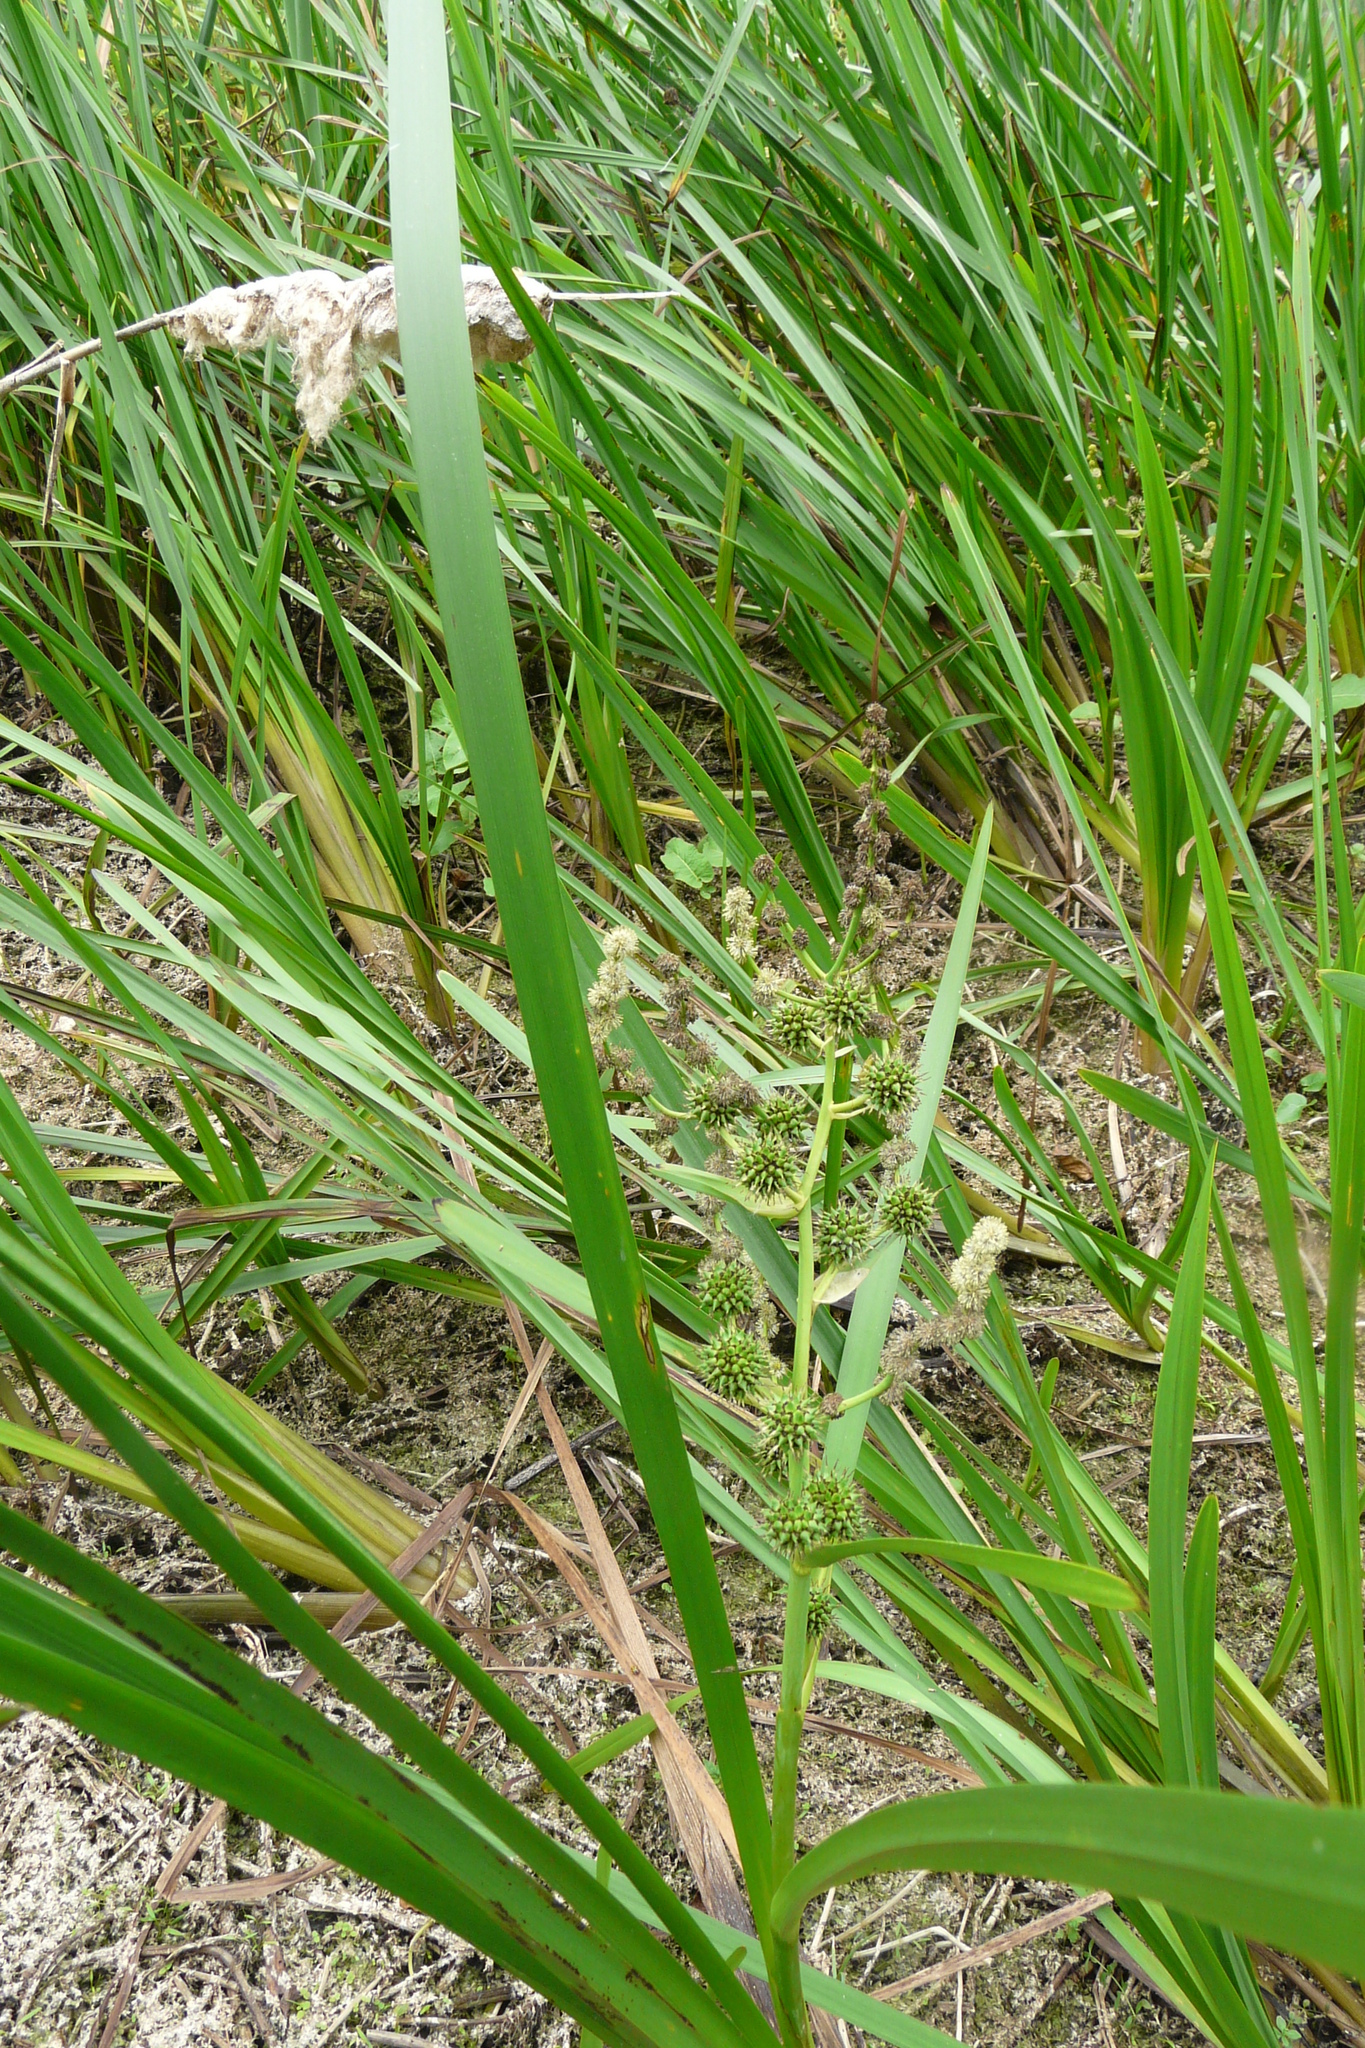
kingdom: Plantae
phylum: Tracheophyta
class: Liliopsida
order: Poales
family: Typhaceae
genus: Sparganium
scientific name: Sparganium erectum
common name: Branched bur-reed
